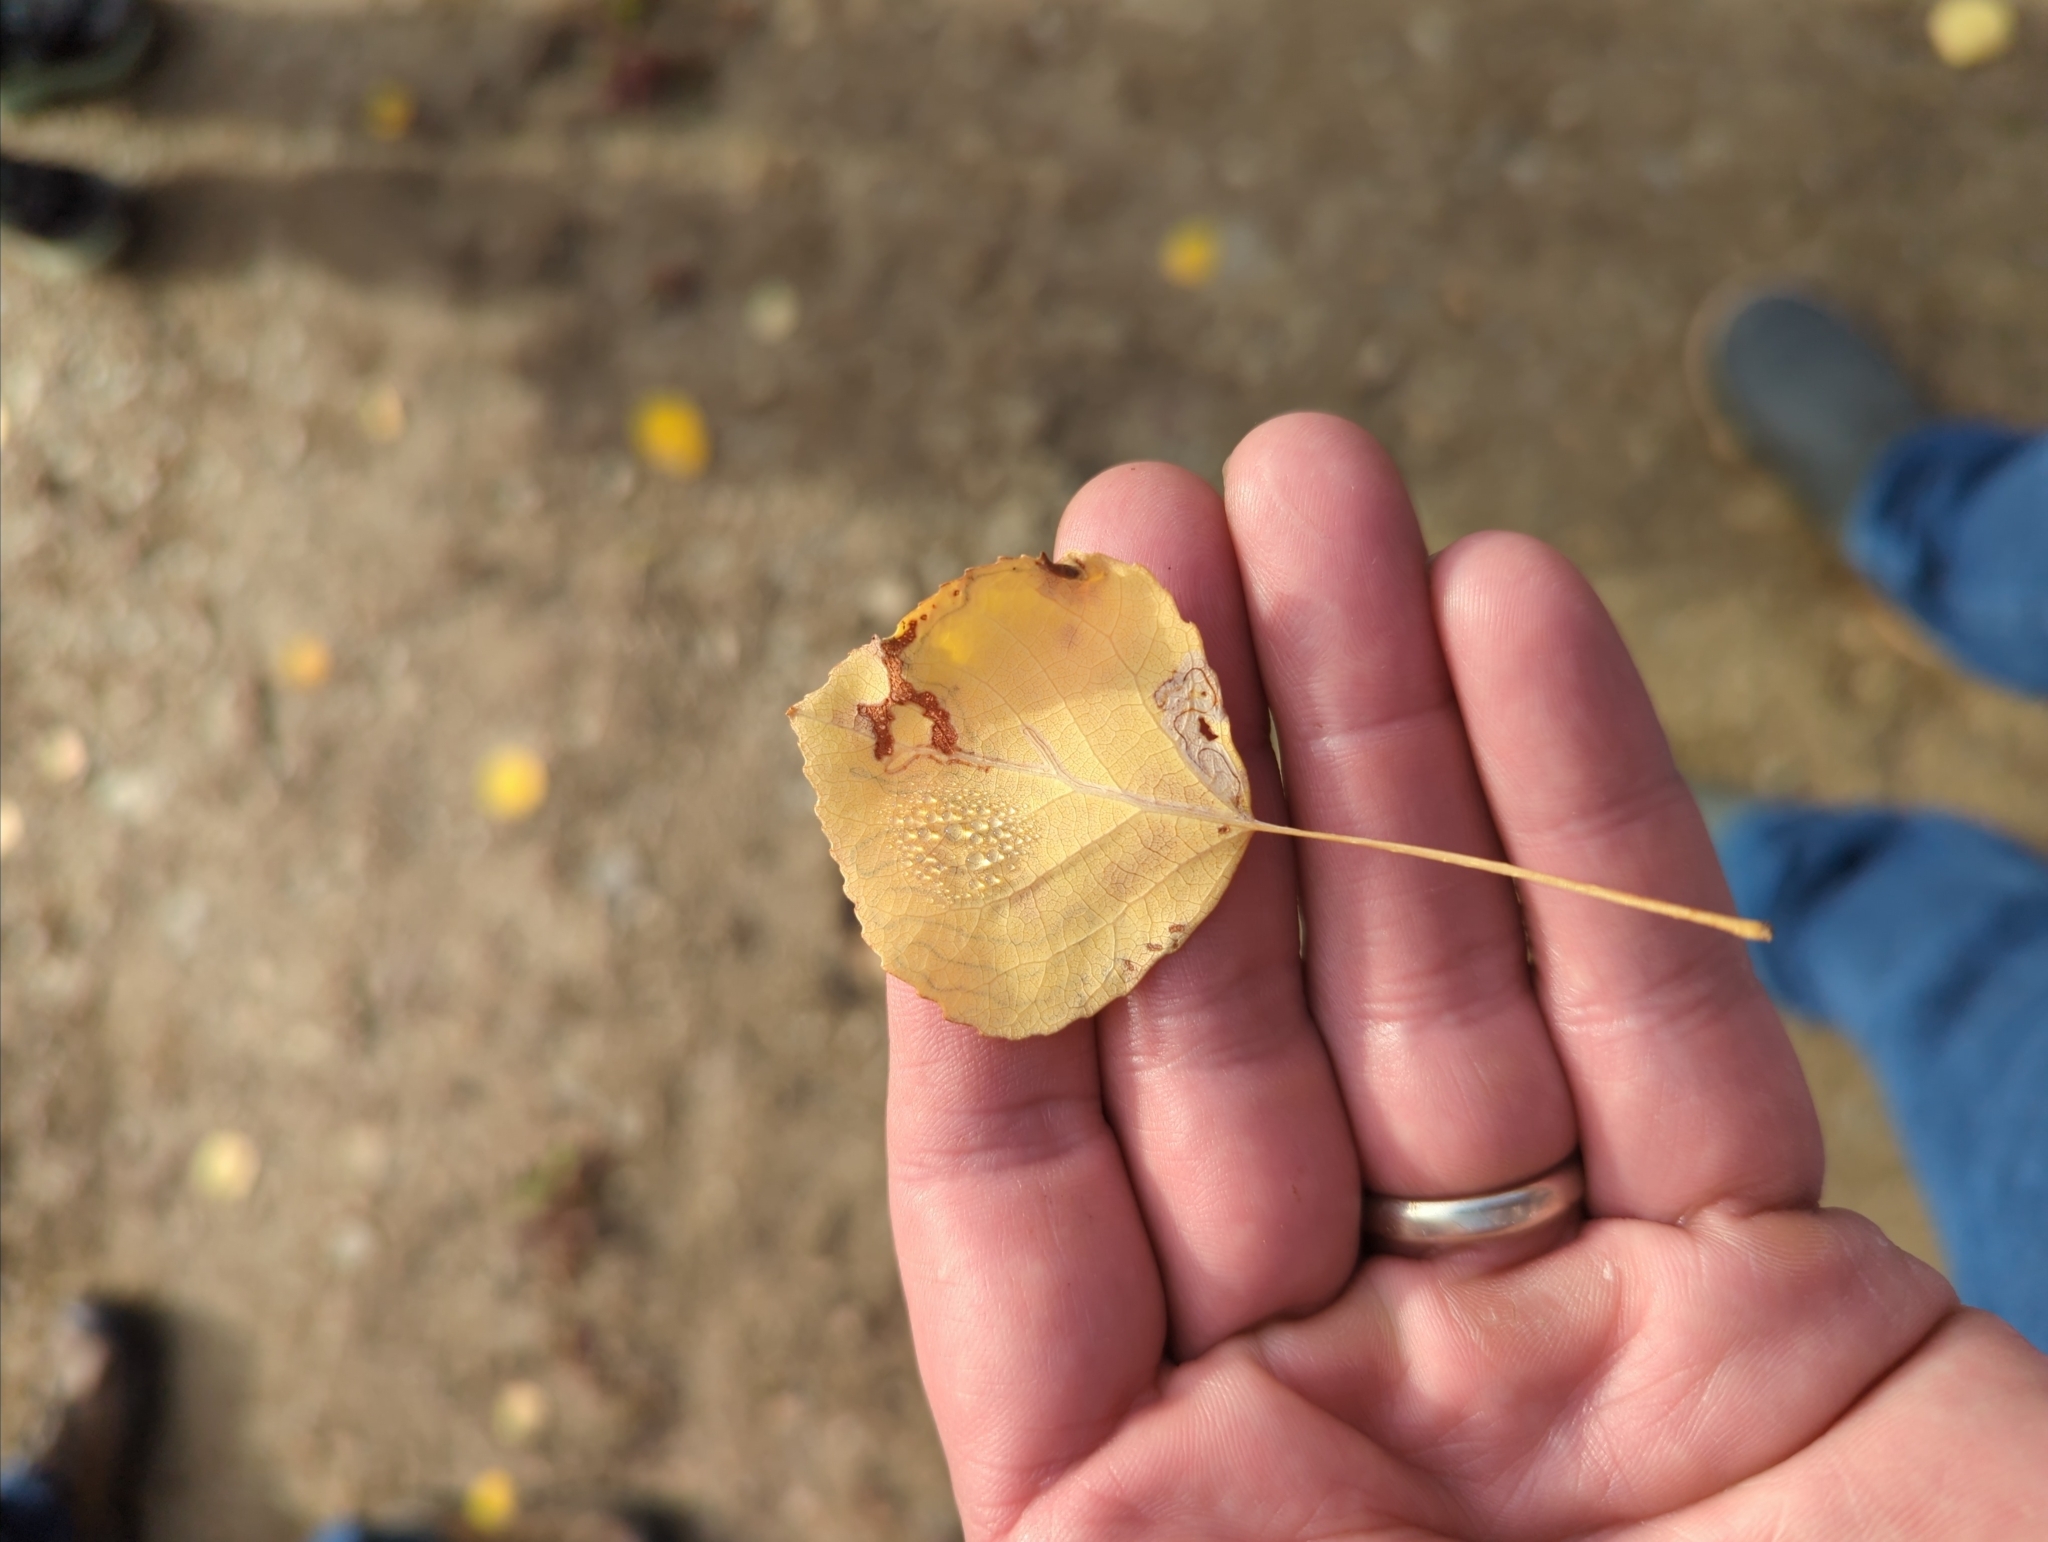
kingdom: Animalia
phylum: Arthropoda
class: Insecta
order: Lepidoptera
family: Gracillariidae
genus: Phyllocnistis
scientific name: Phyllocnistis populiella
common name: Aspen serpentine leafminer moth
